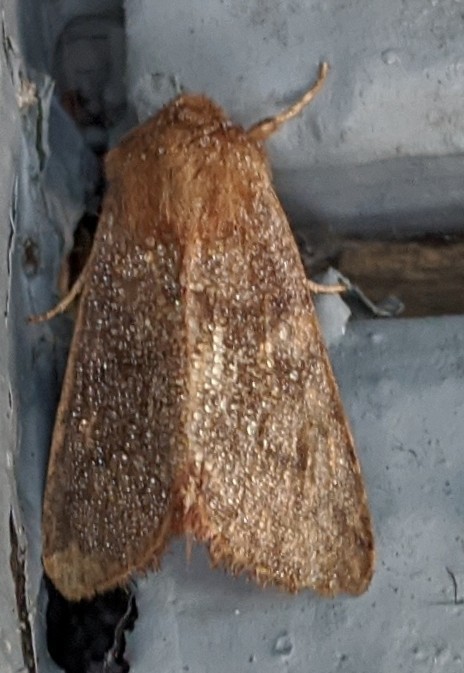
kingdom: Animalia
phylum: Arthropoda
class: Insecta
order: Lepidoptera
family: Noctuidae
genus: Nephelodes
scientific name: Nephelodes minians
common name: Bronzed cutworm
